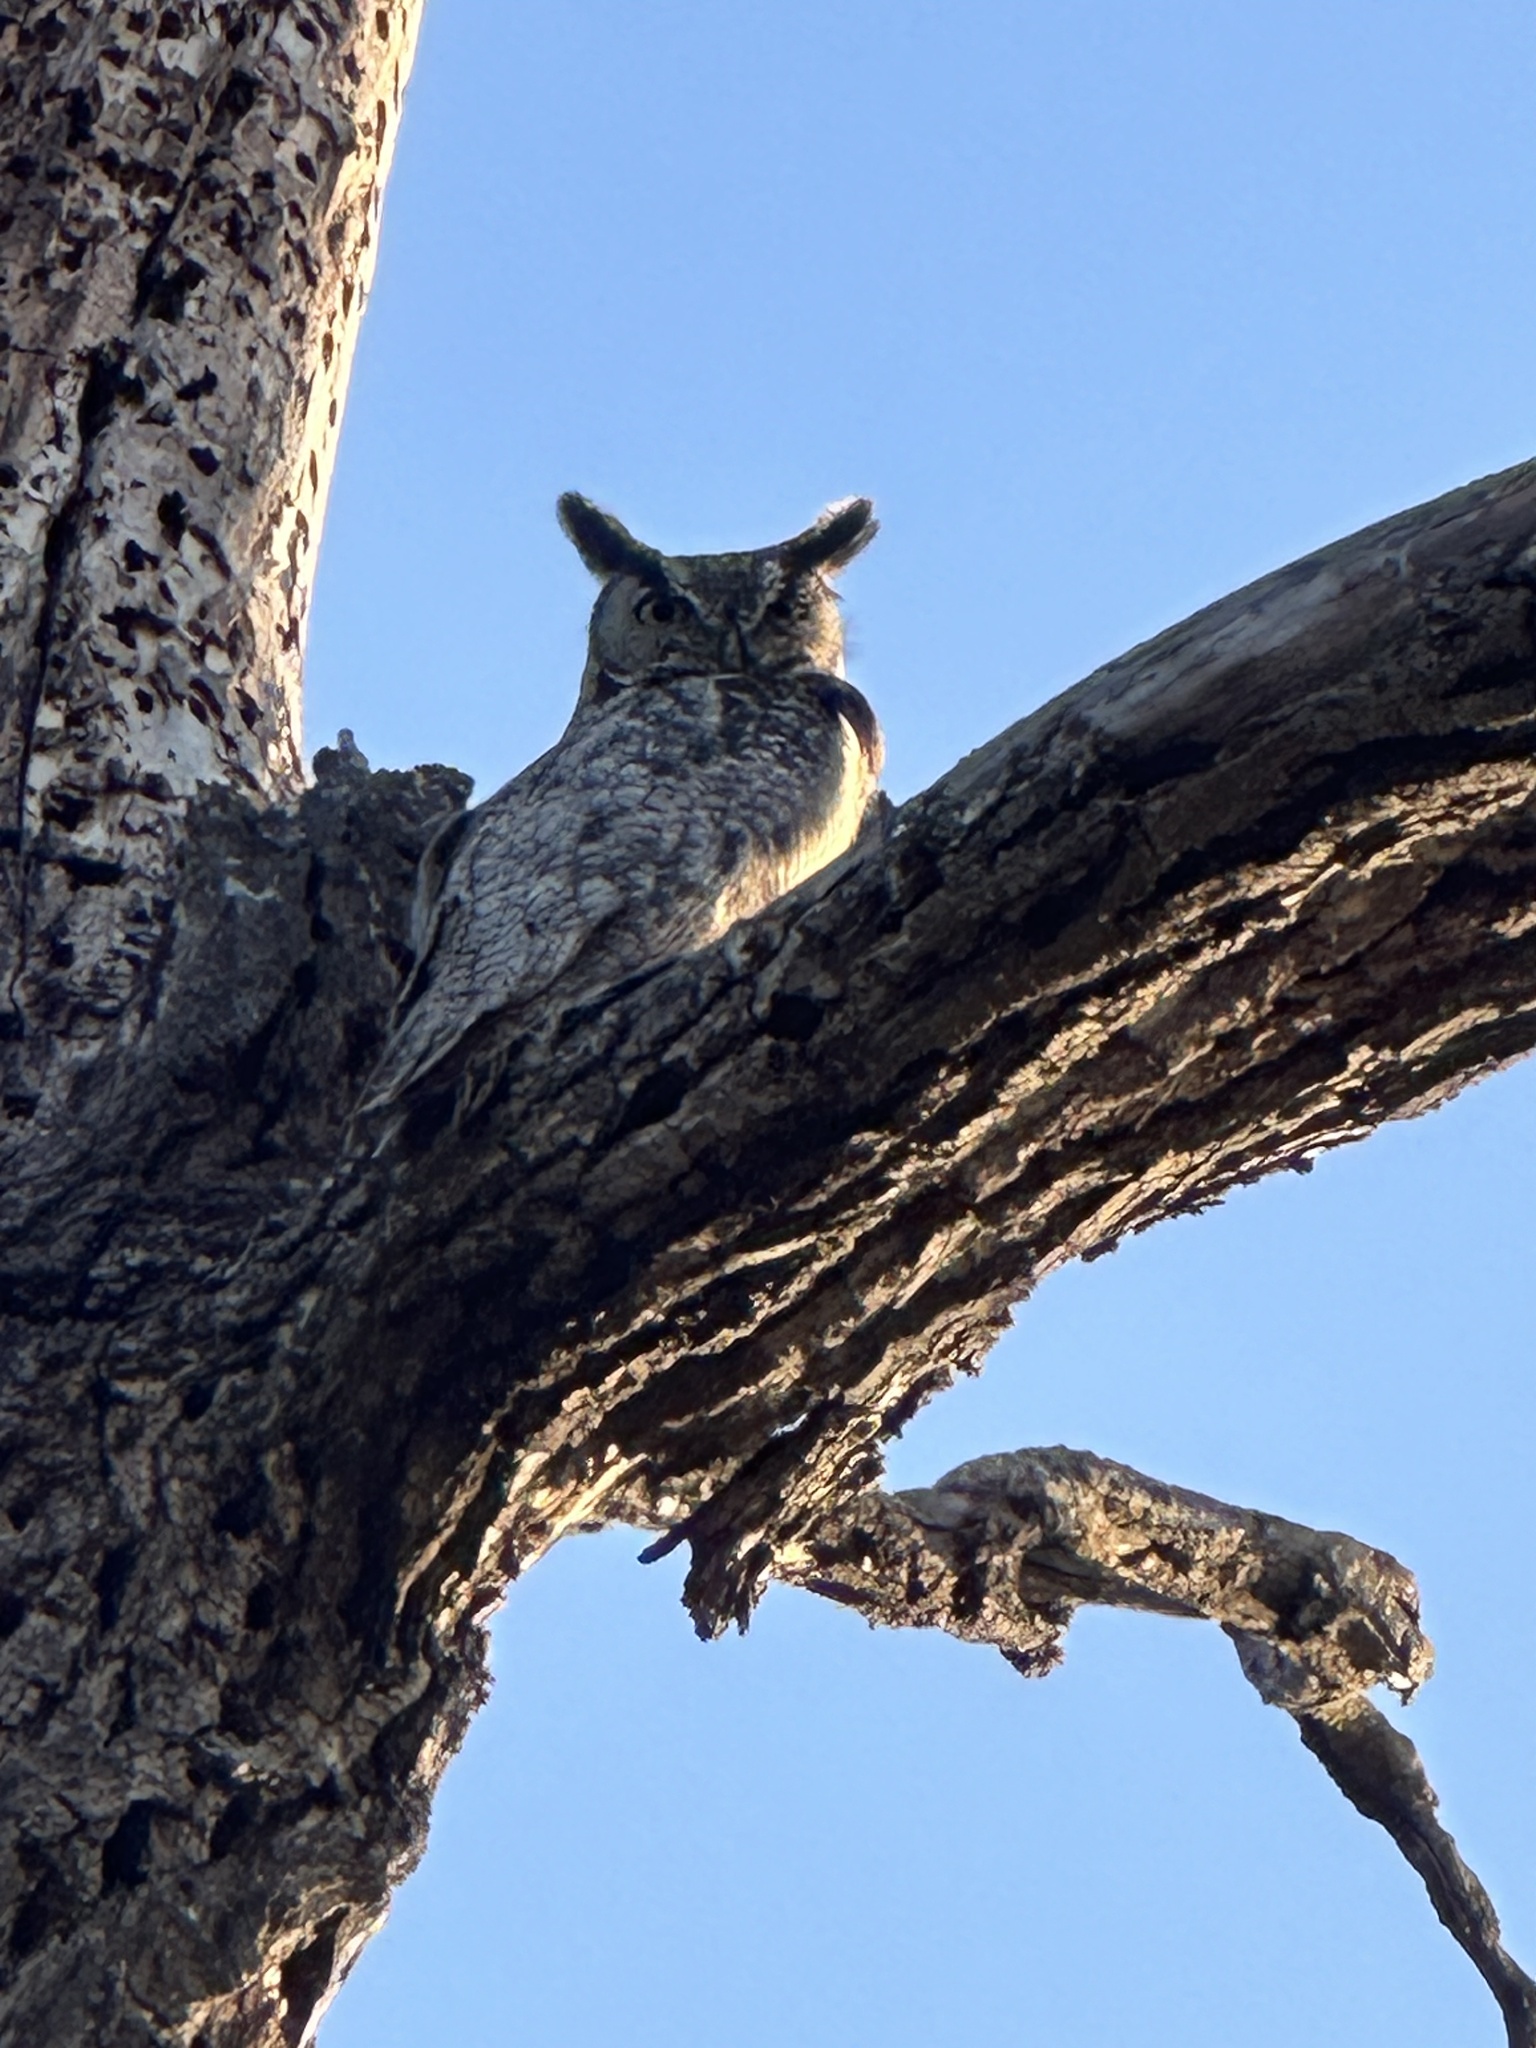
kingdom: Animalia
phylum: Chordata
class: Aves
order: Strigiformes
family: Strigidae
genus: Bubo
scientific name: Bubo virginianus
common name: Great horned owl
